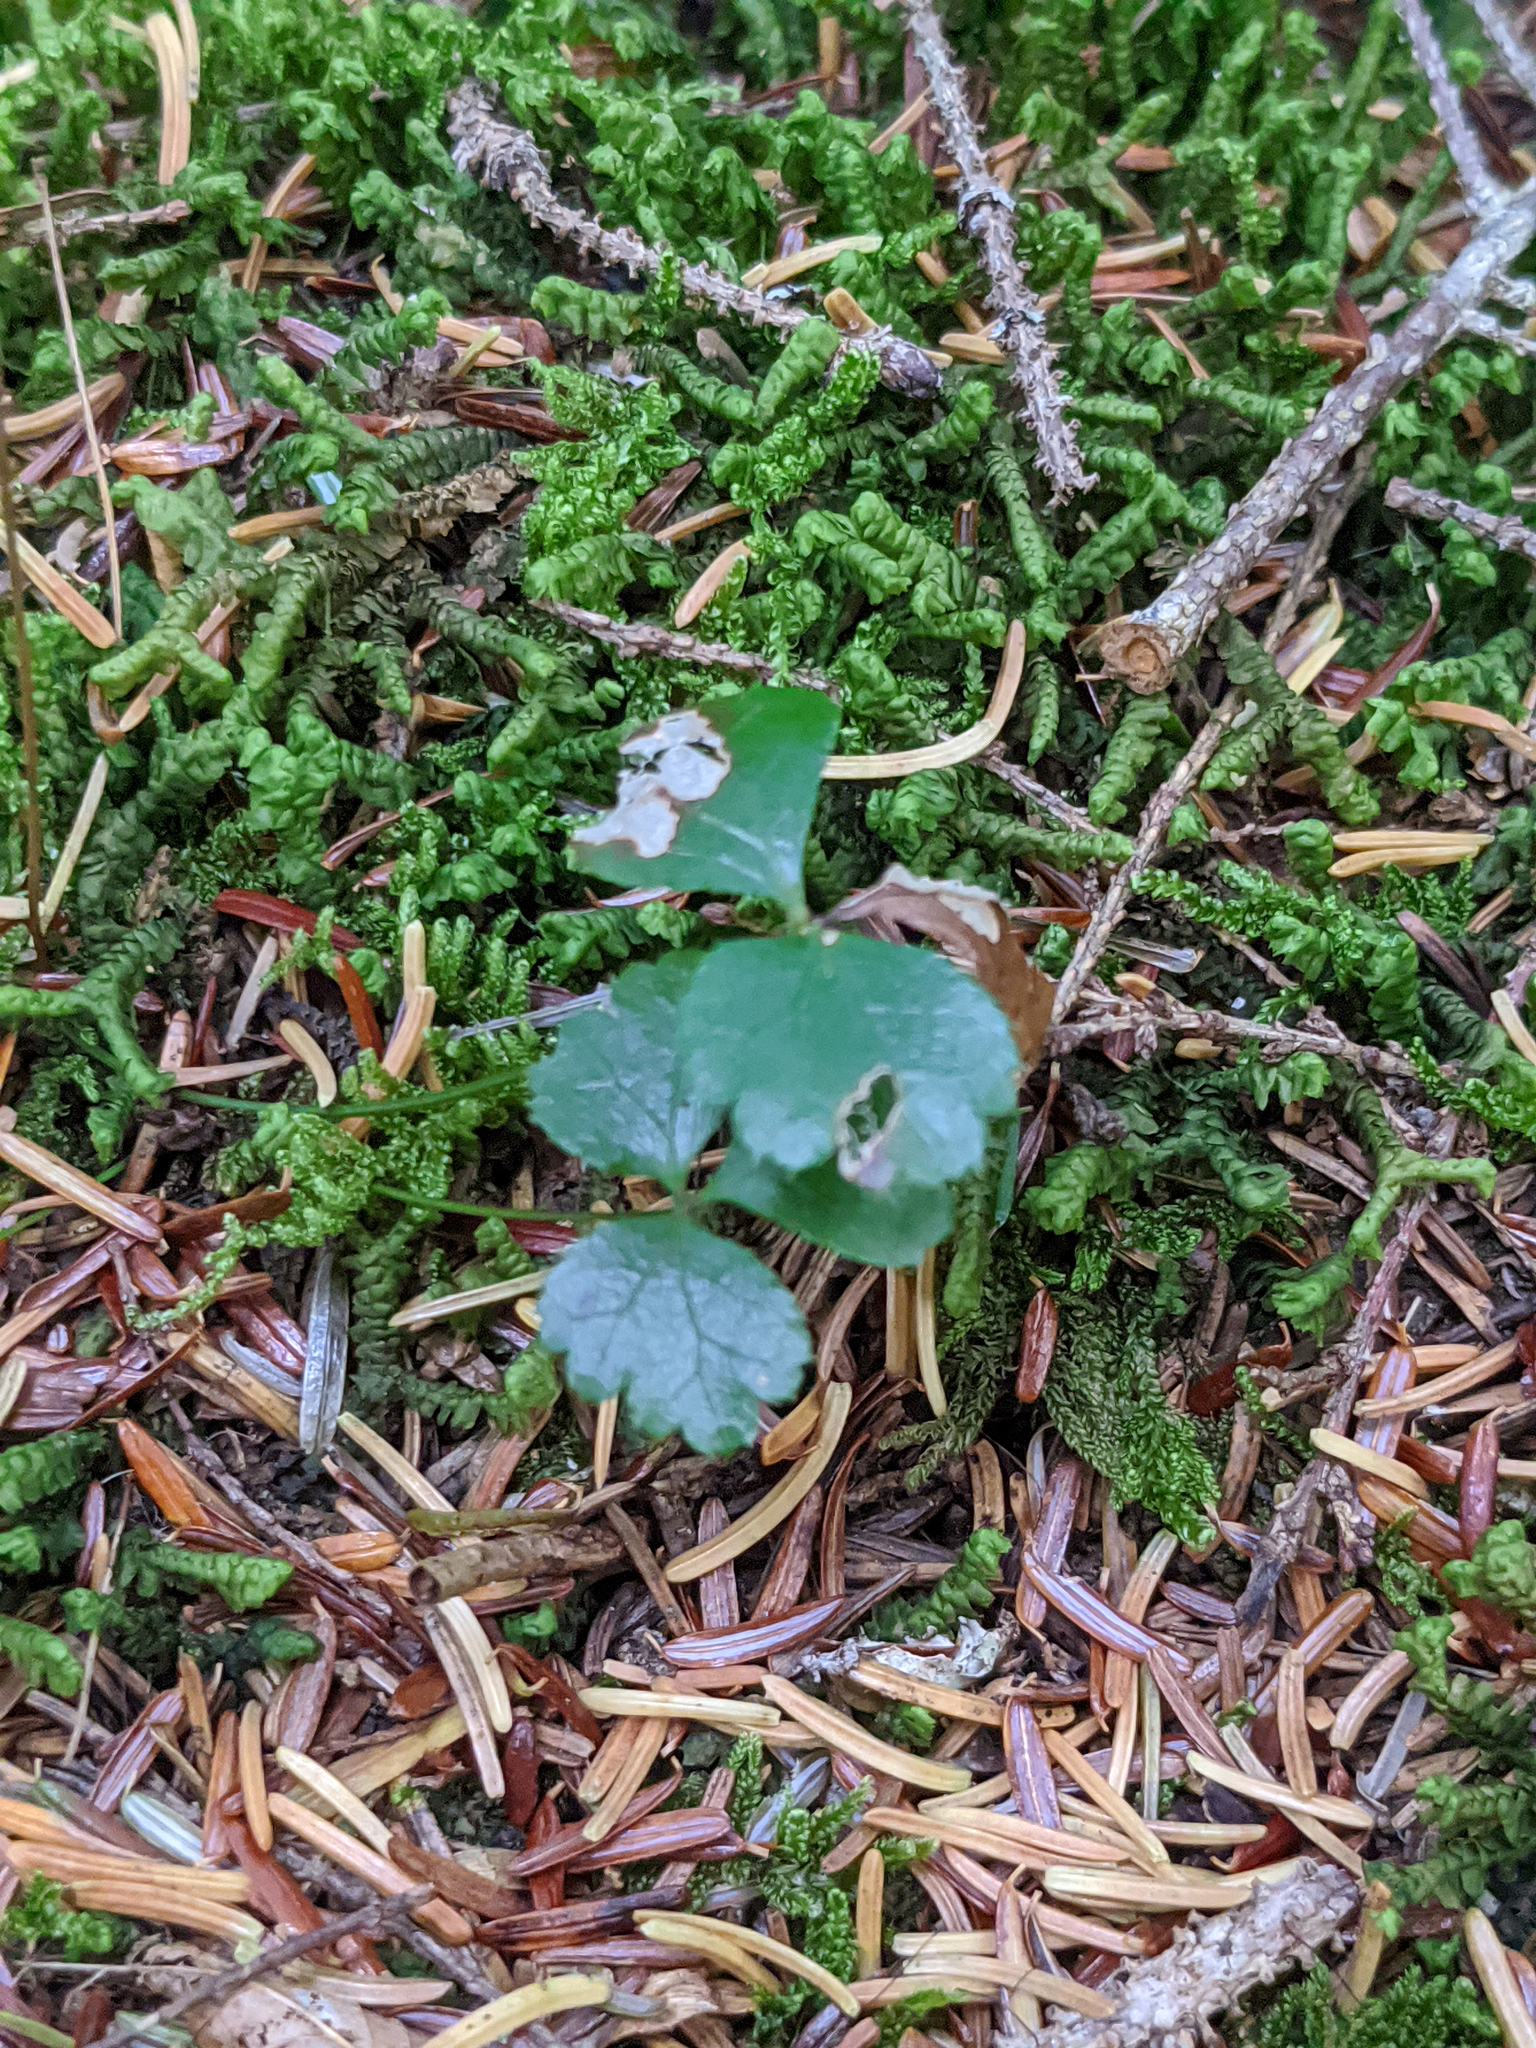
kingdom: Plantae
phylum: Tracheophyta
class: Magnoliopsida
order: Ranunculales
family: Ranunculaceae
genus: Coptis
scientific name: Coptis trifolia
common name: Canker-root
